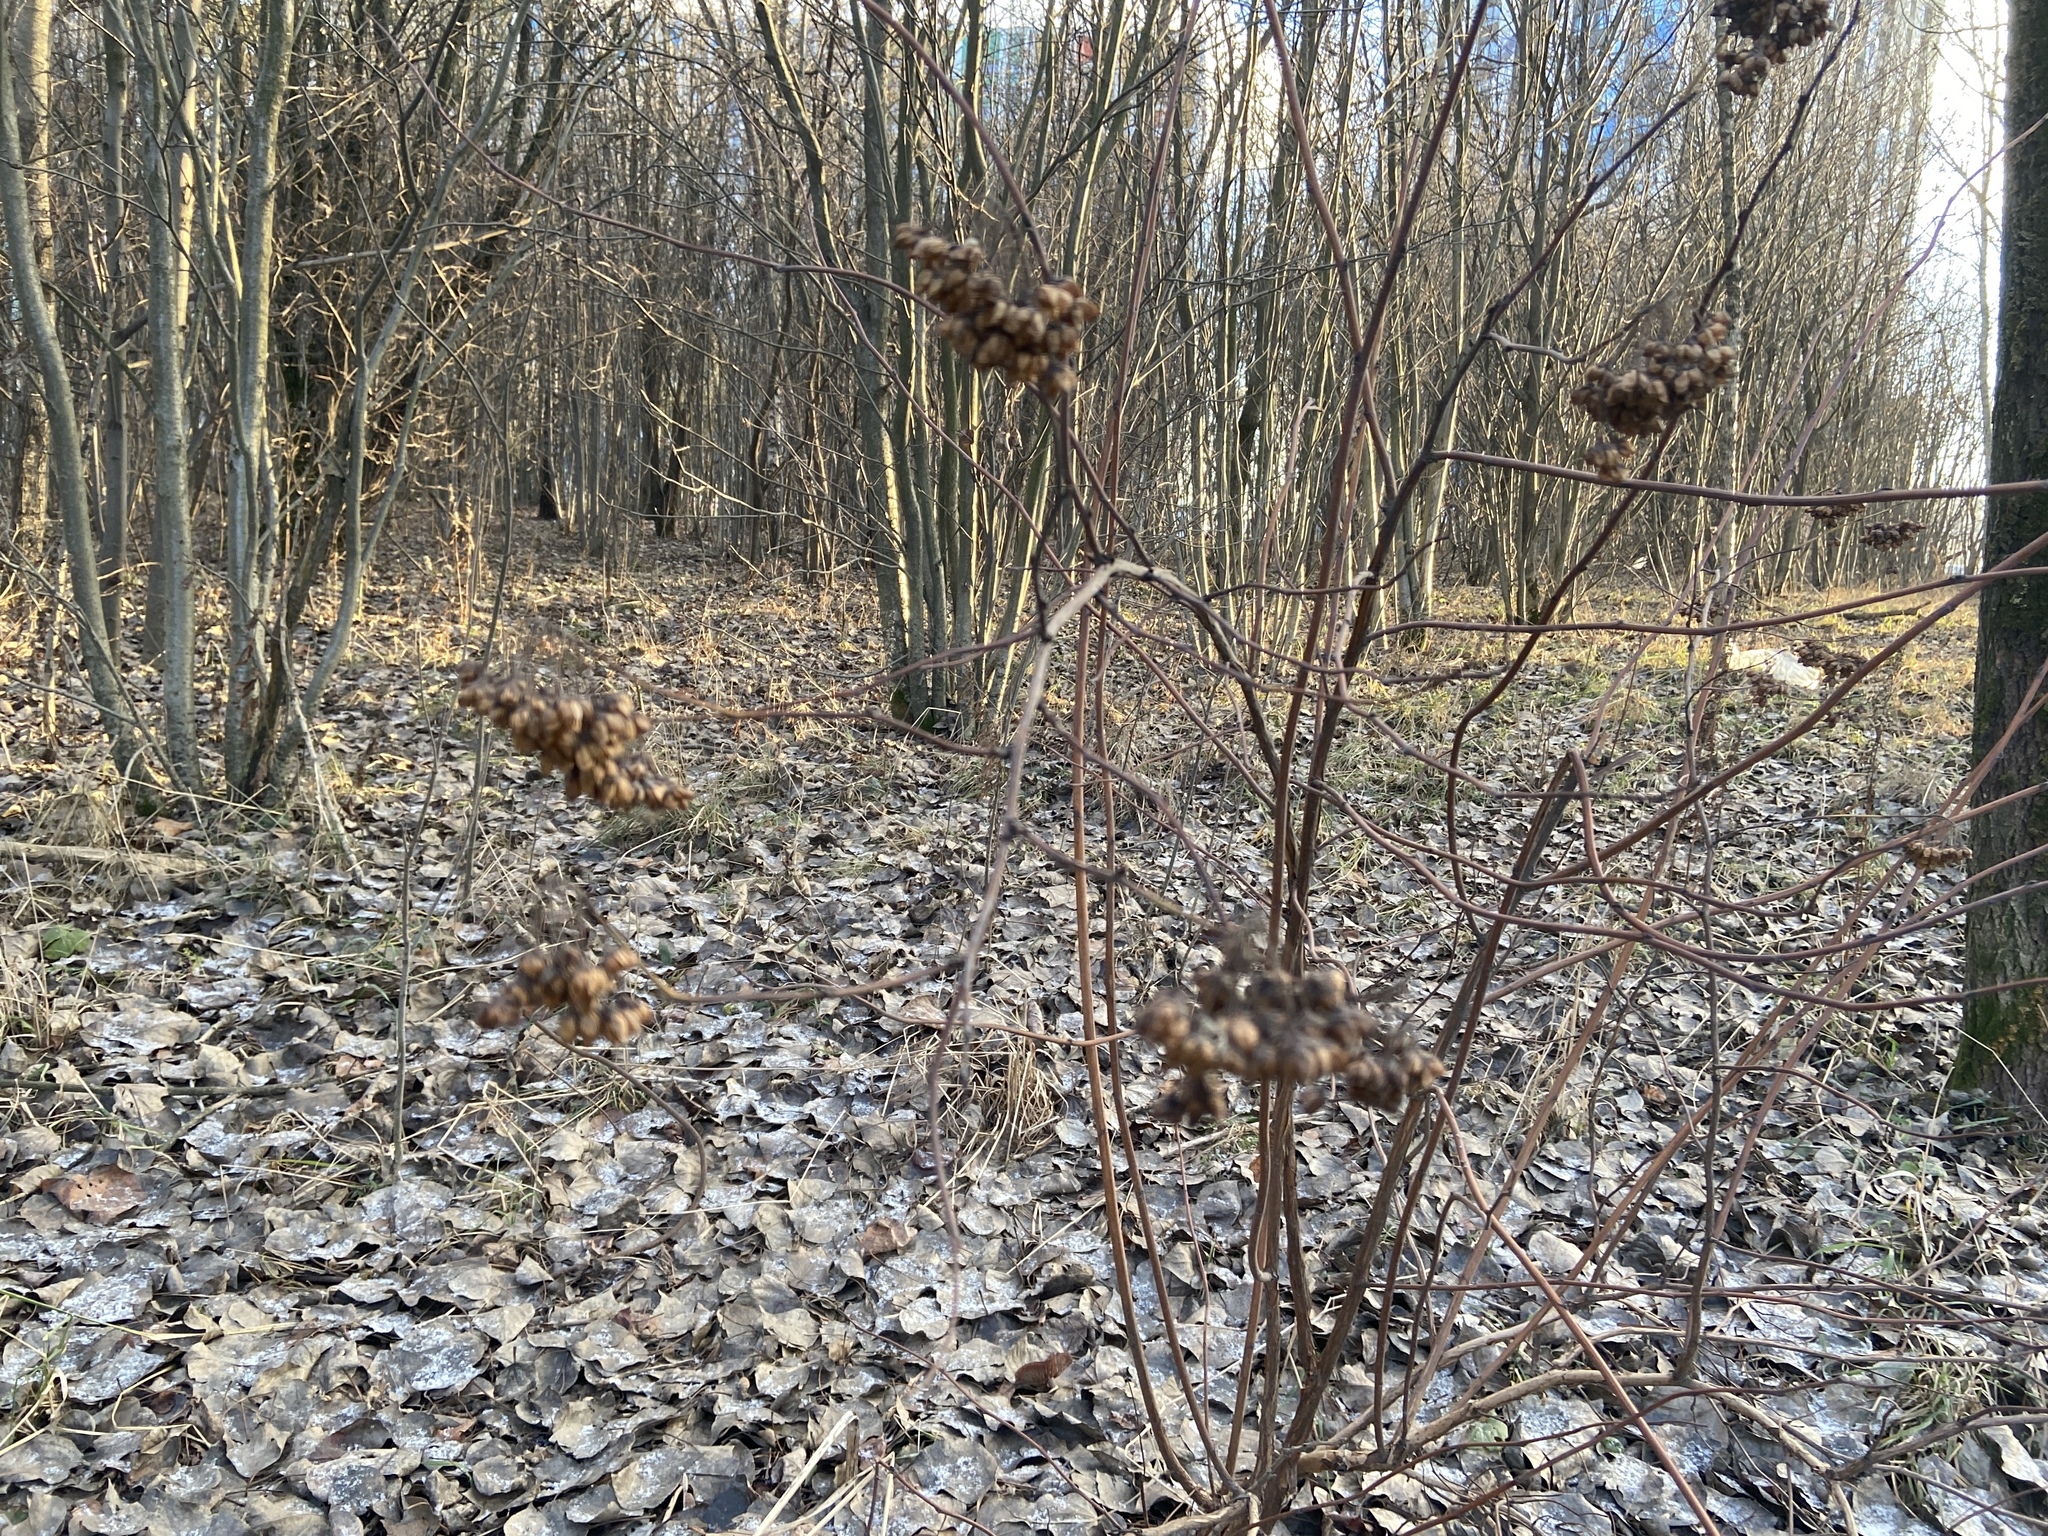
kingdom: Plantae
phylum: Tracheophyta
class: Magnoliopsida
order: Rosales
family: Rosaceae
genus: Physocarpus
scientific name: Physocarpus opulifolius
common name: Ninebark
